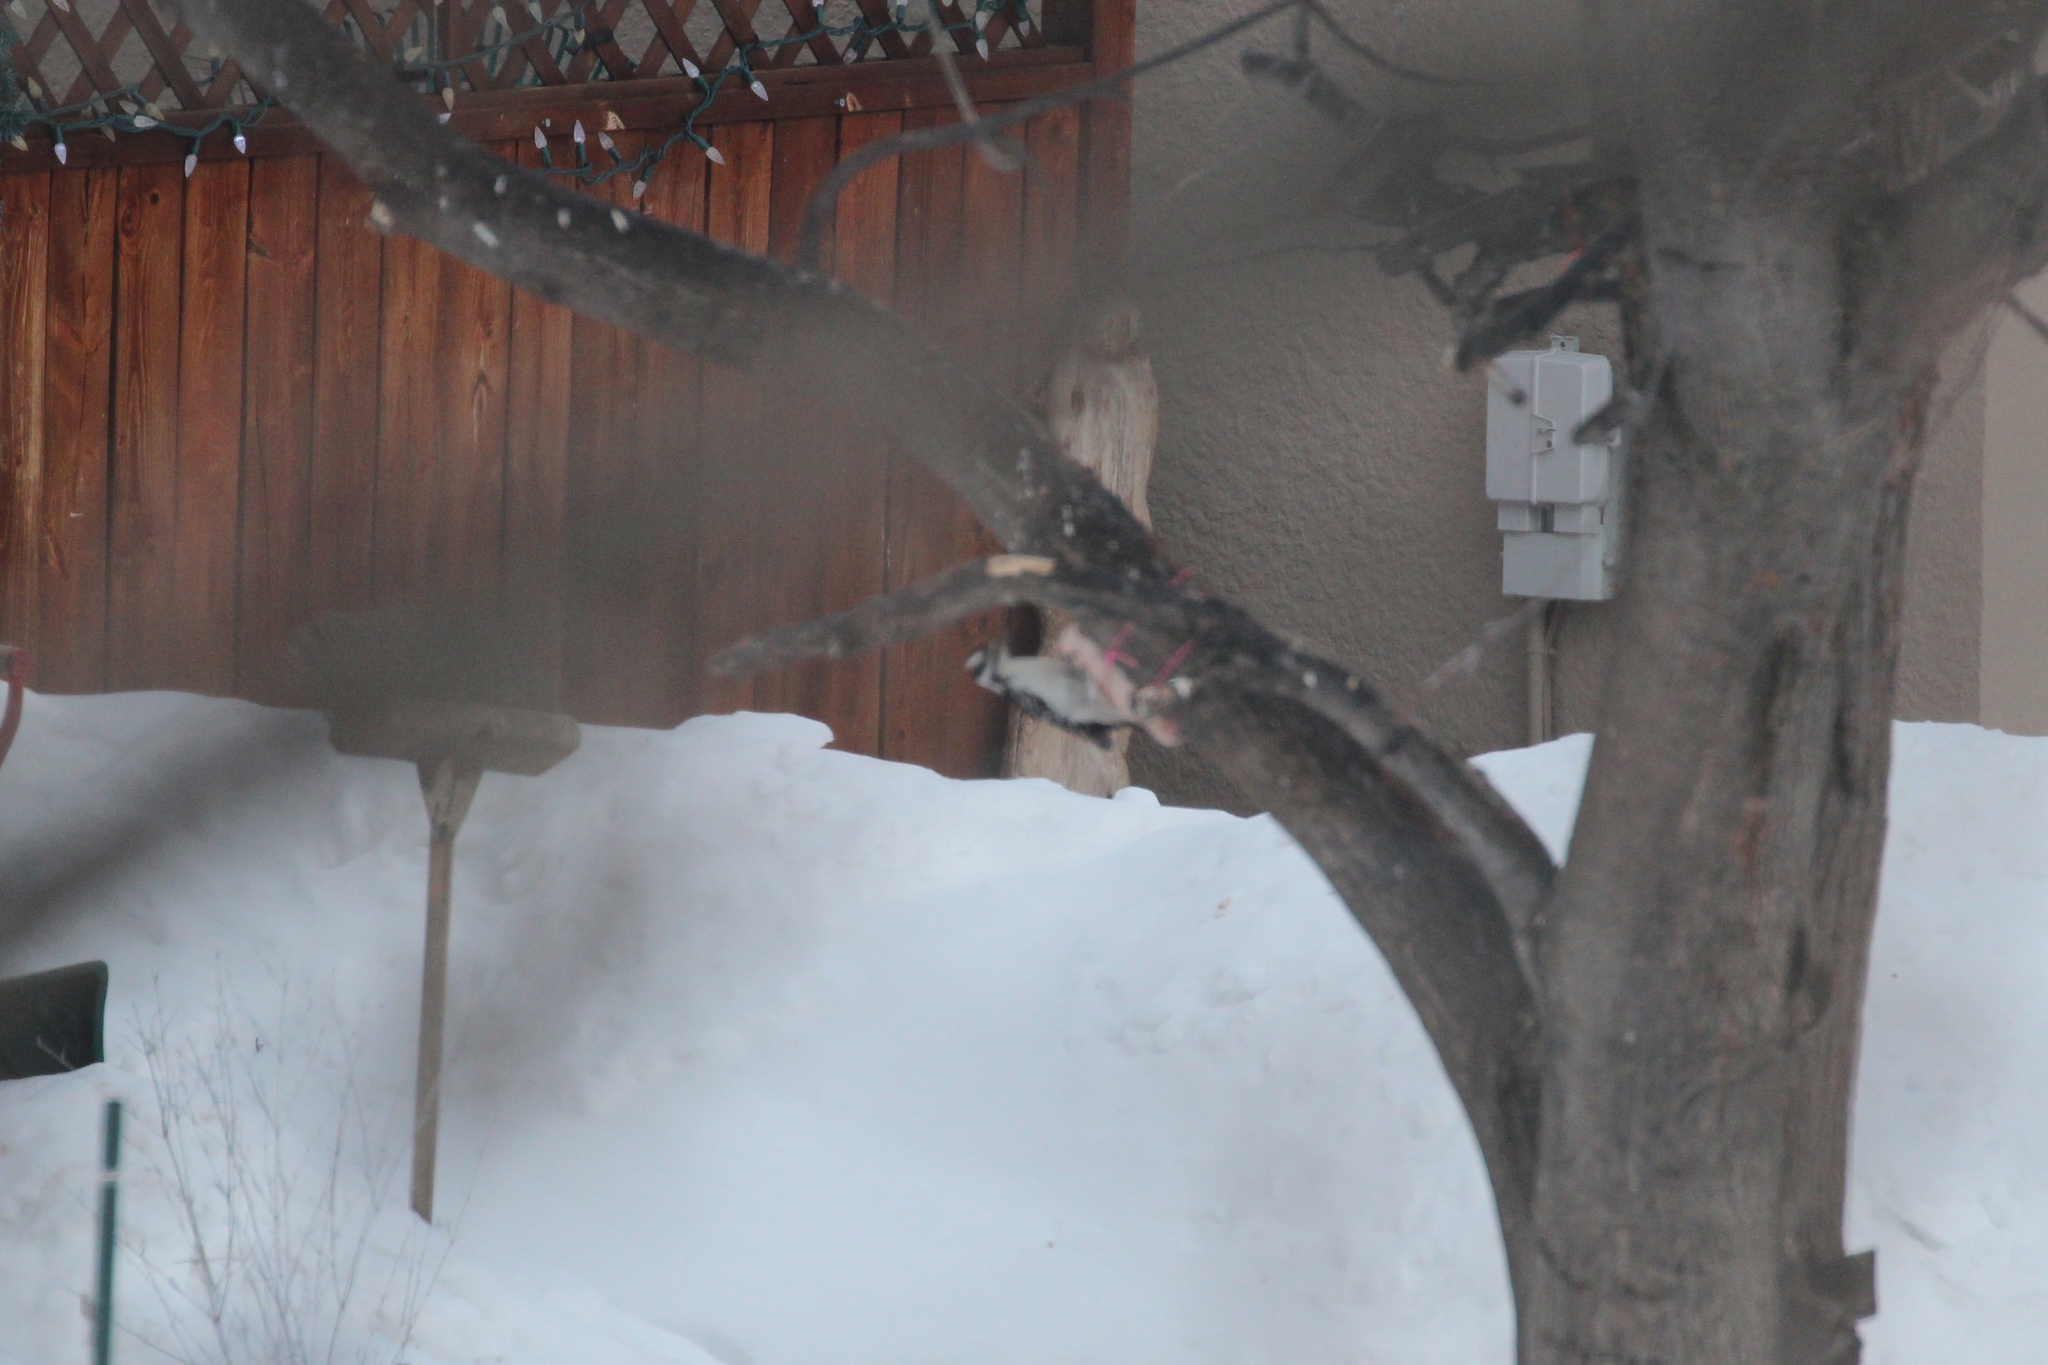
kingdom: Animalia
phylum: Chordata
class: Aves
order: Piciformes
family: Picidae
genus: Leuconotopicus
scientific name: Leuconotopicus villosus
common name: Hairy woodpecker
